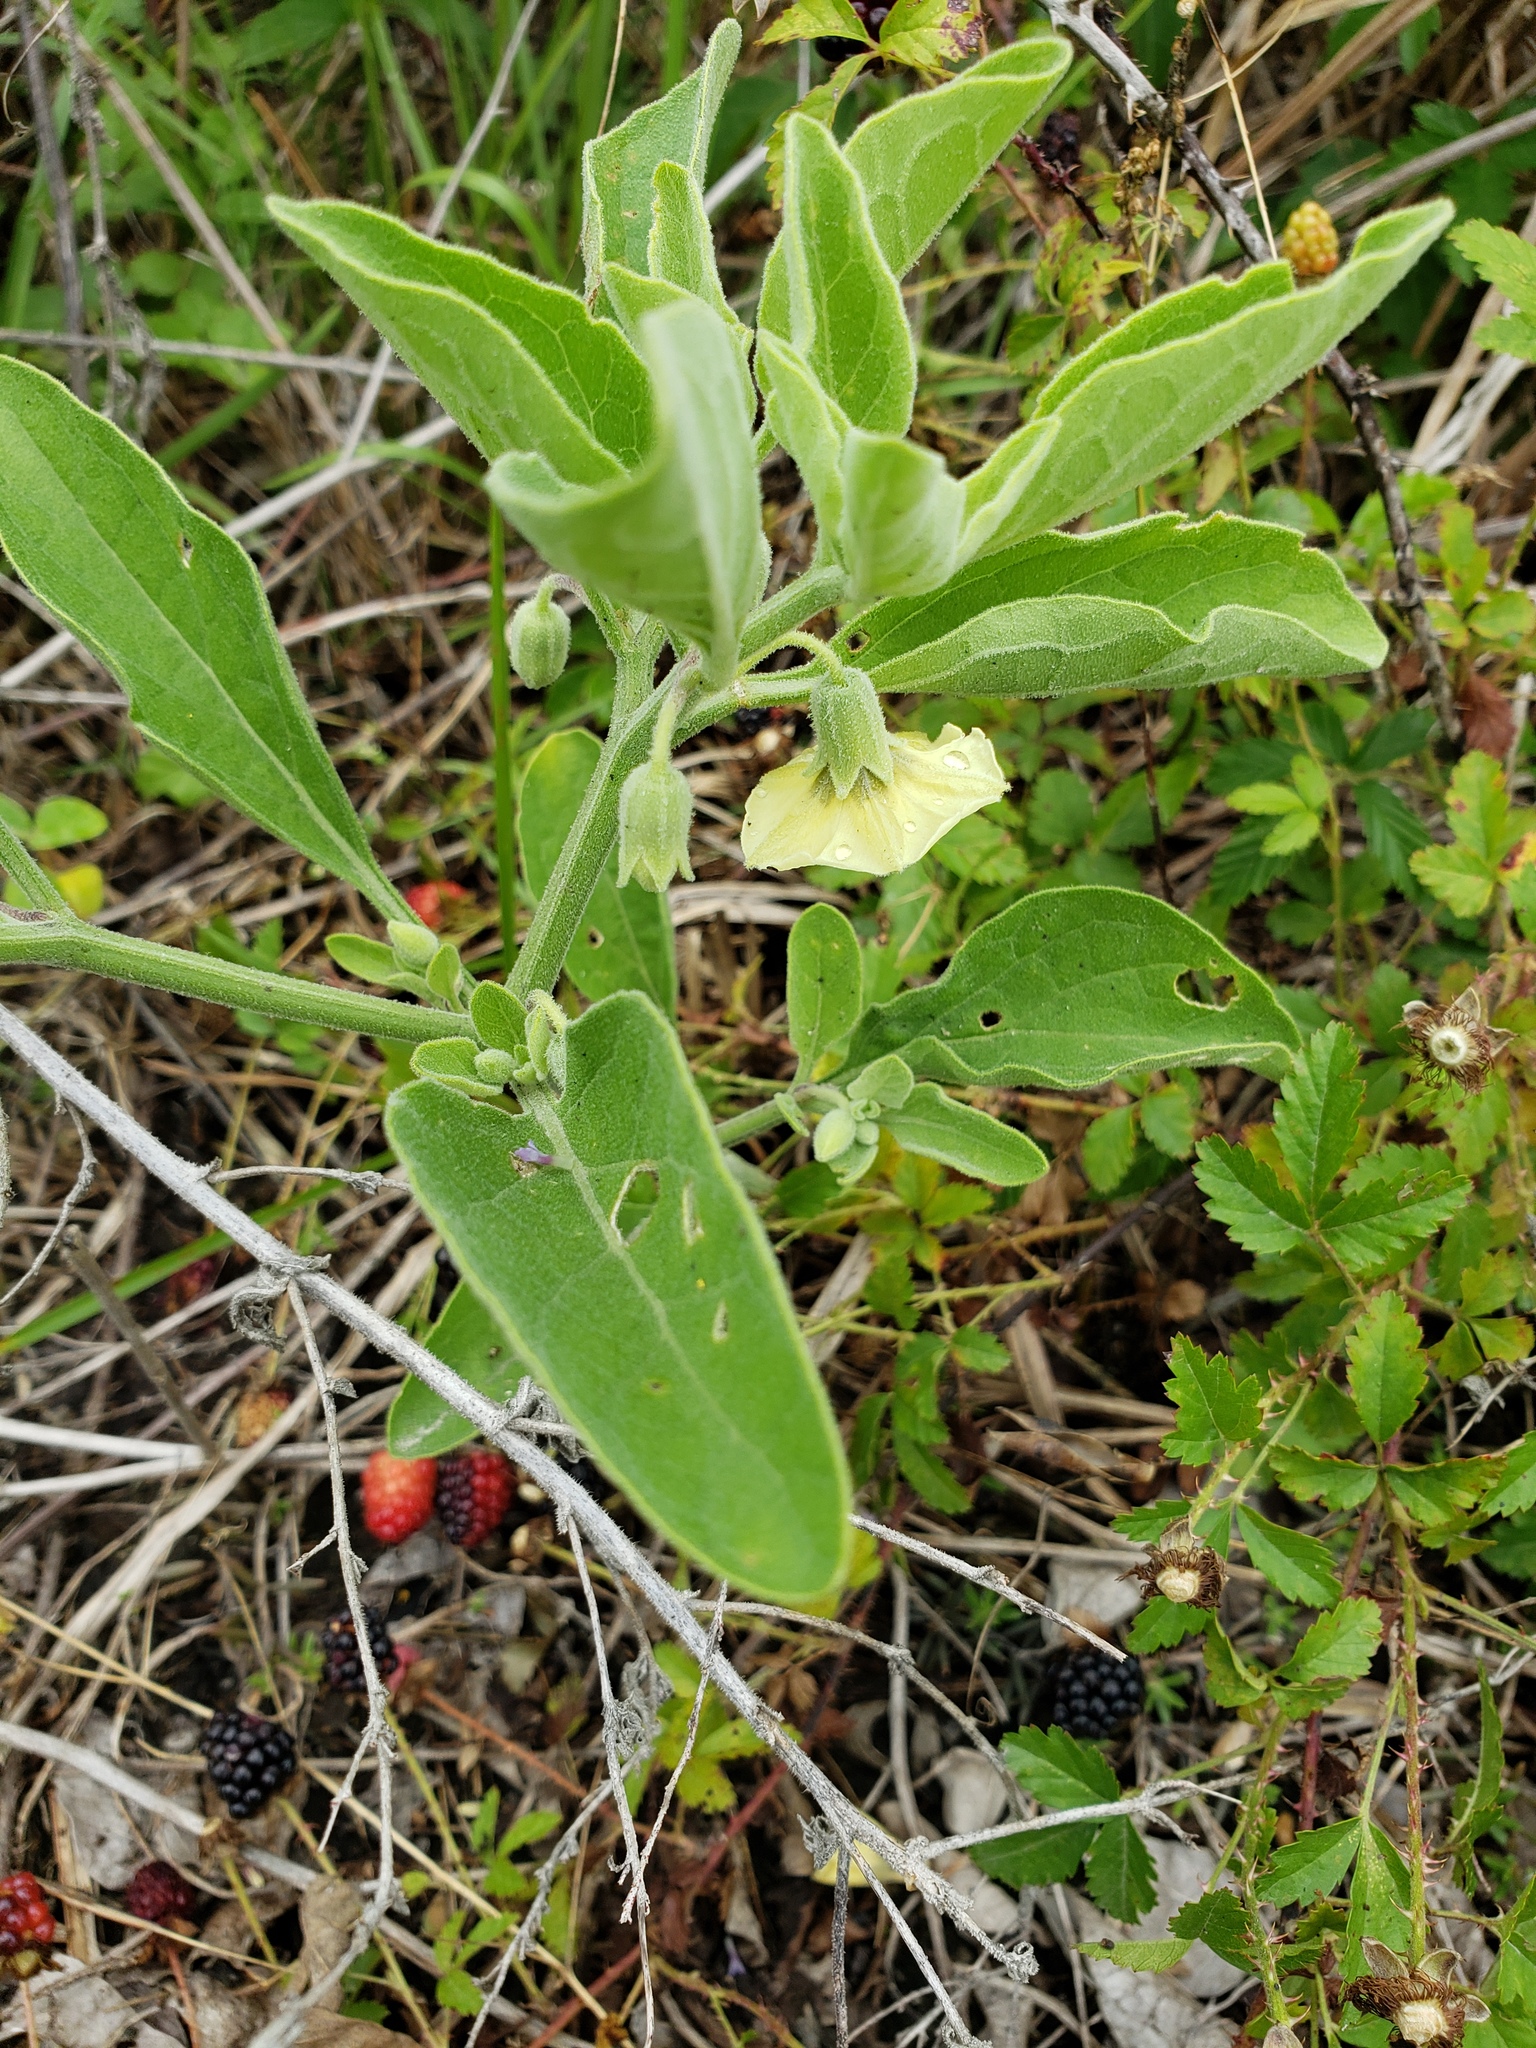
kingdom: Plantae
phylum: Tracheophyta
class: Magnoliopsida
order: Solanales
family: Solanaceae
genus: Physalis
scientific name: Physalis cinerascens
